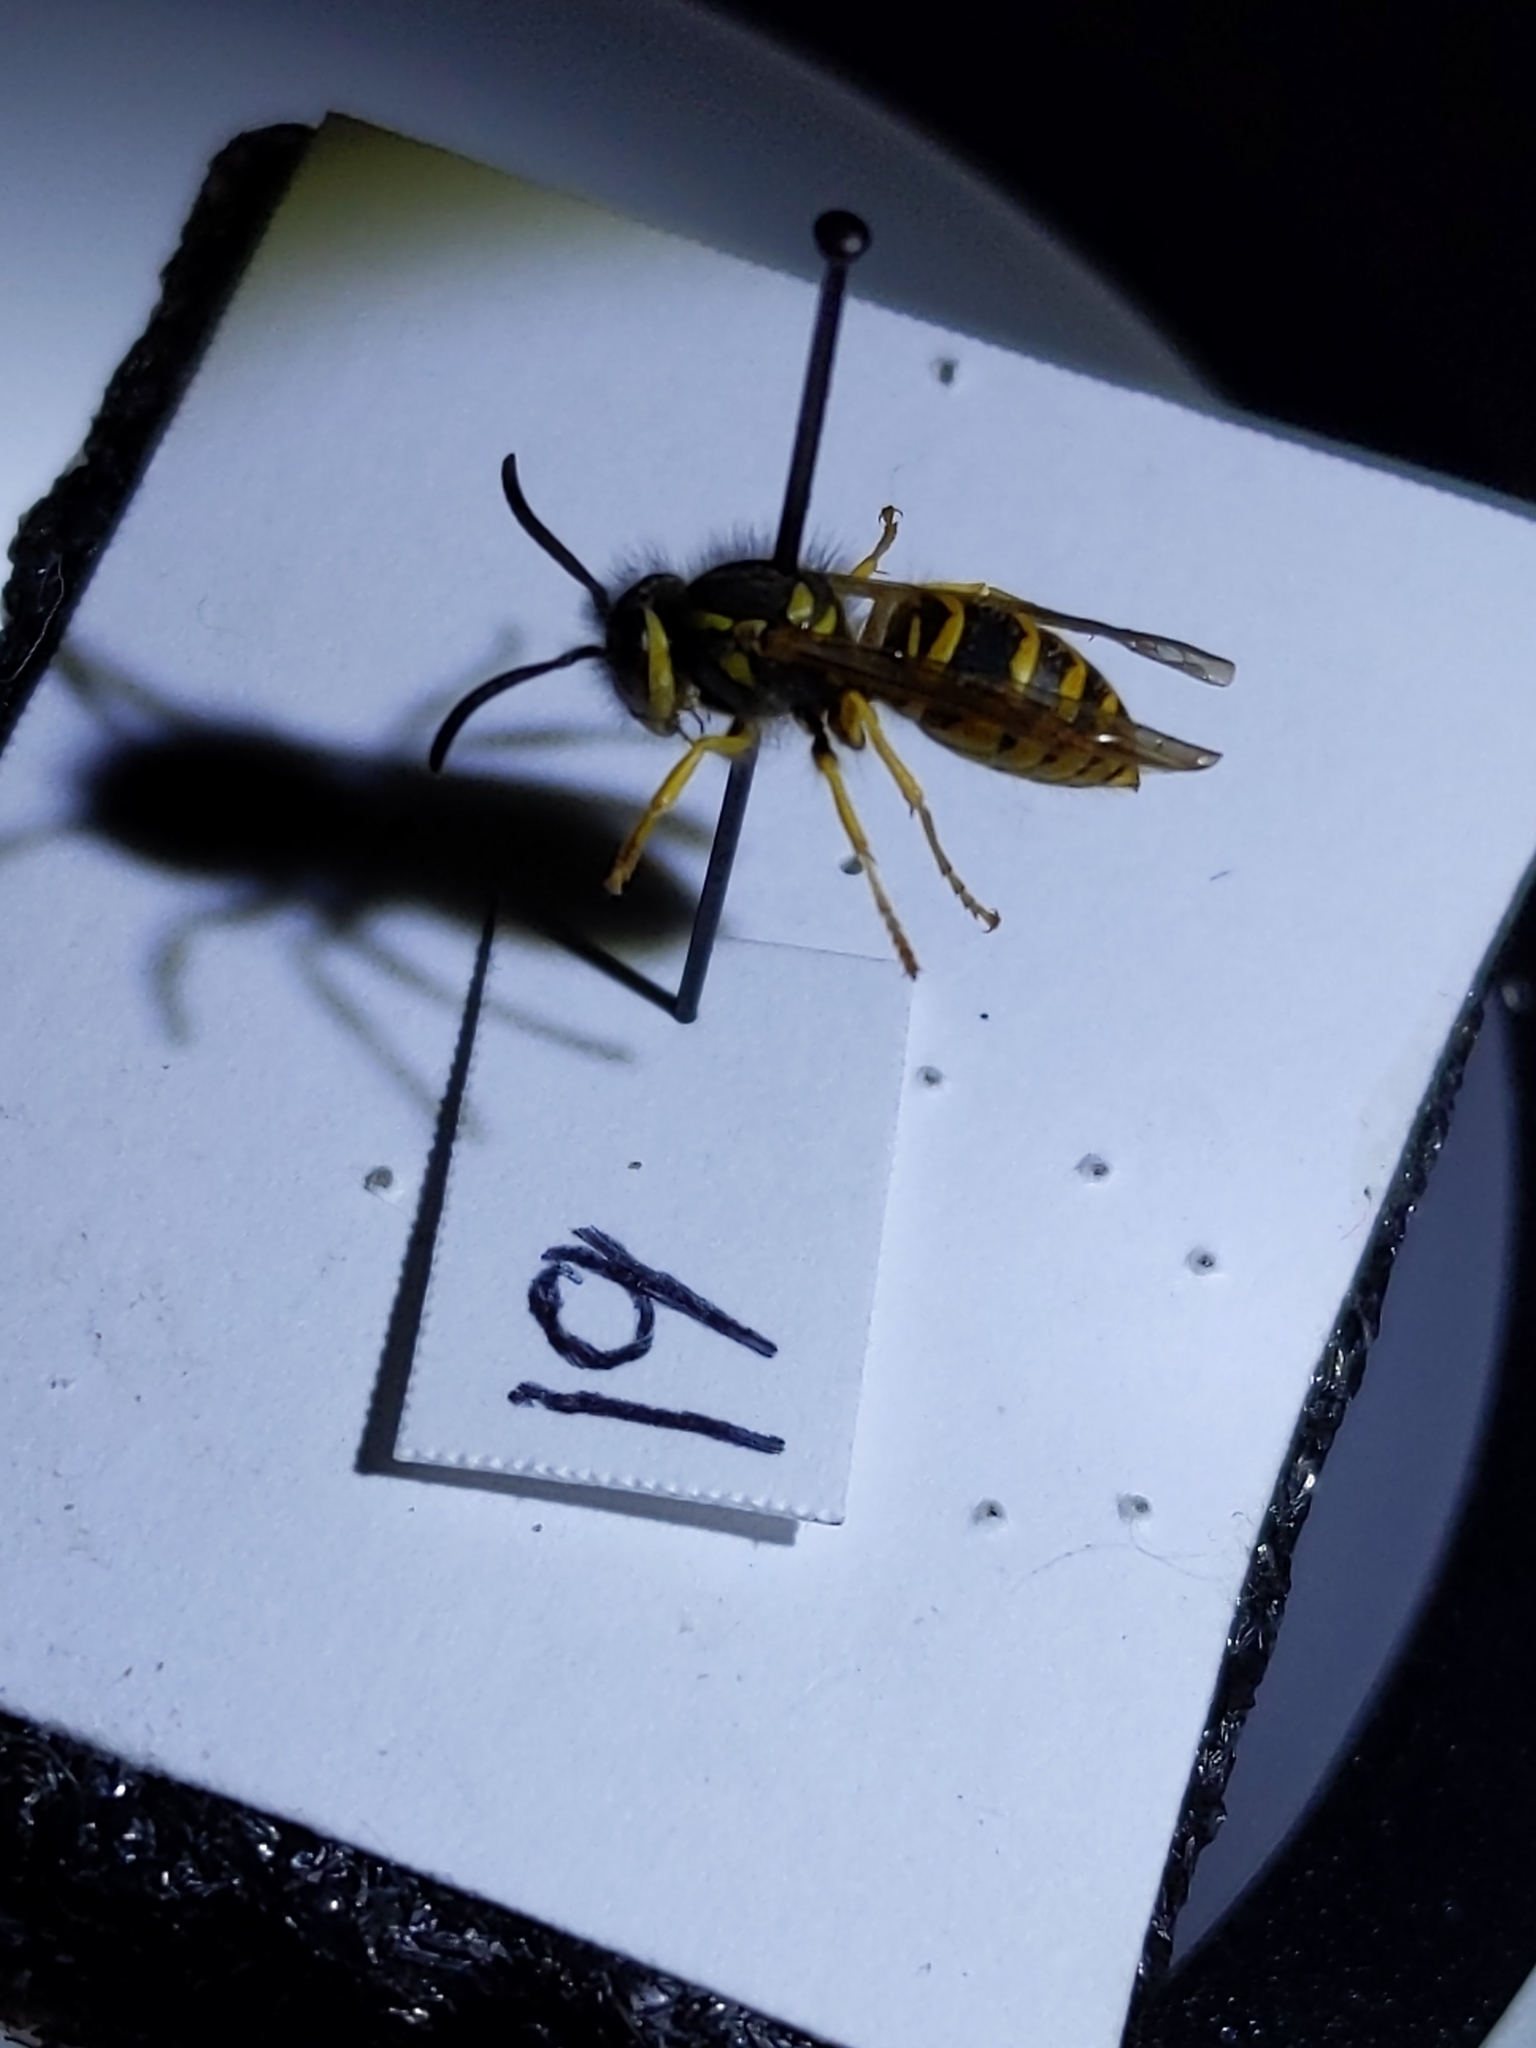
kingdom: Animalia
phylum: Arthropoda
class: Insecta
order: Hymenoptera
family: Vespidae
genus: Vespula
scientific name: Vespula maculifrons
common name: Eastern yellowjacket
